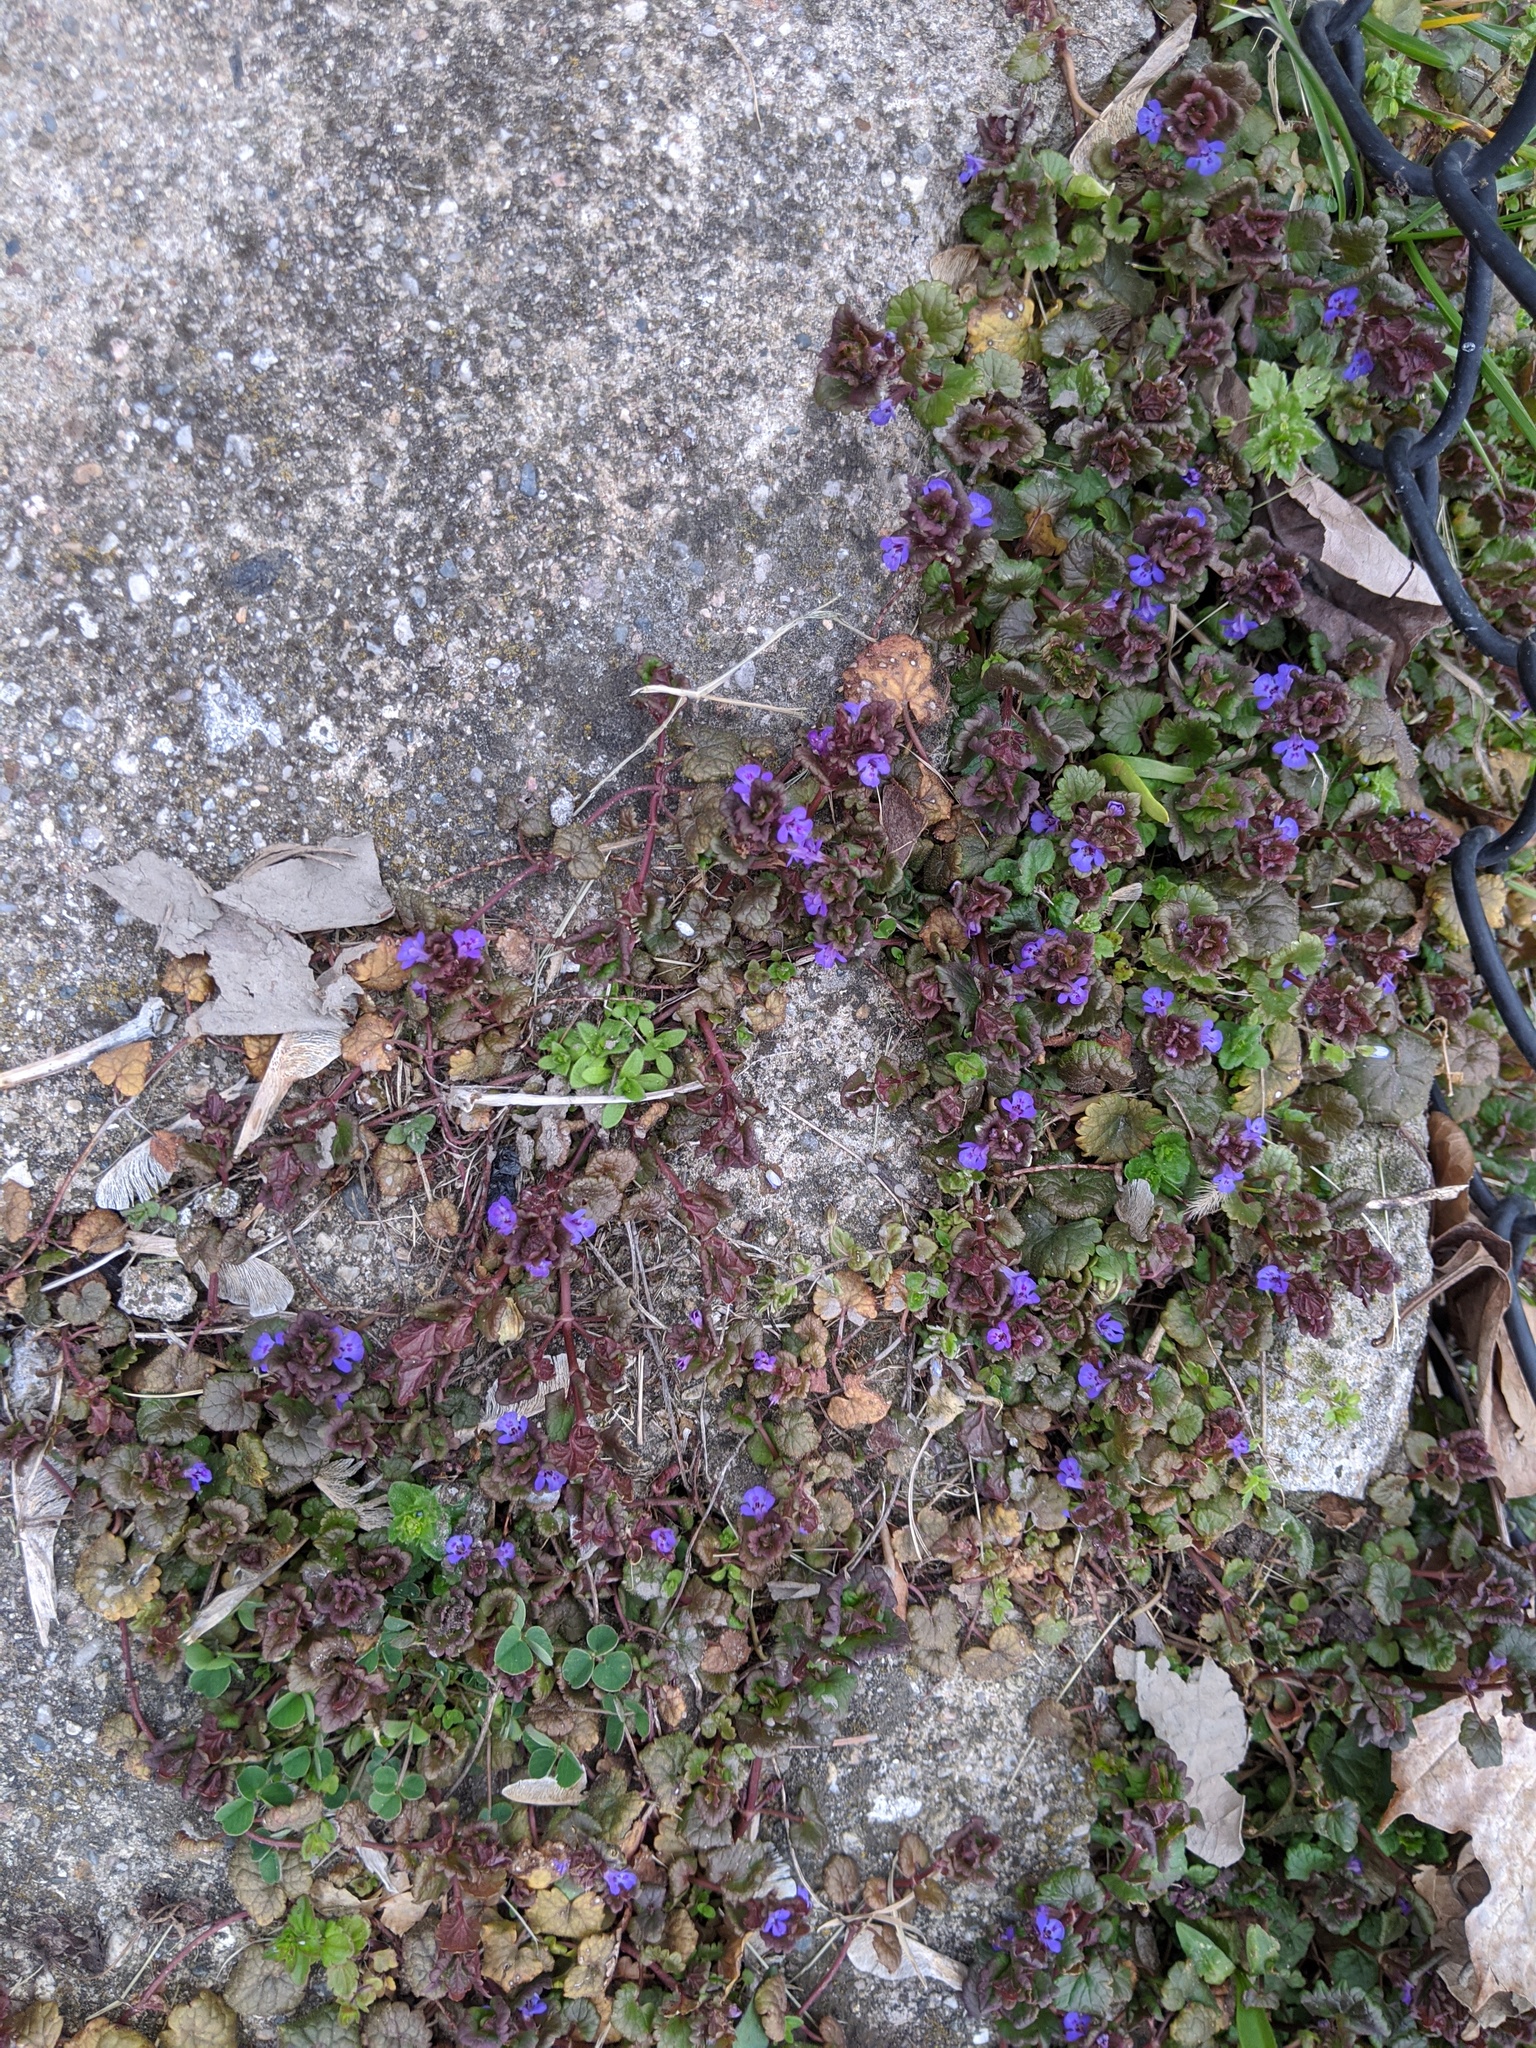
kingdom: Plantae
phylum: Tracheophyta
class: Magnoliopsida
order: Lamiales
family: Lamiaceae
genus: Glechoma
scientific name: Glechoma hederacea
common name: Ground ivy
